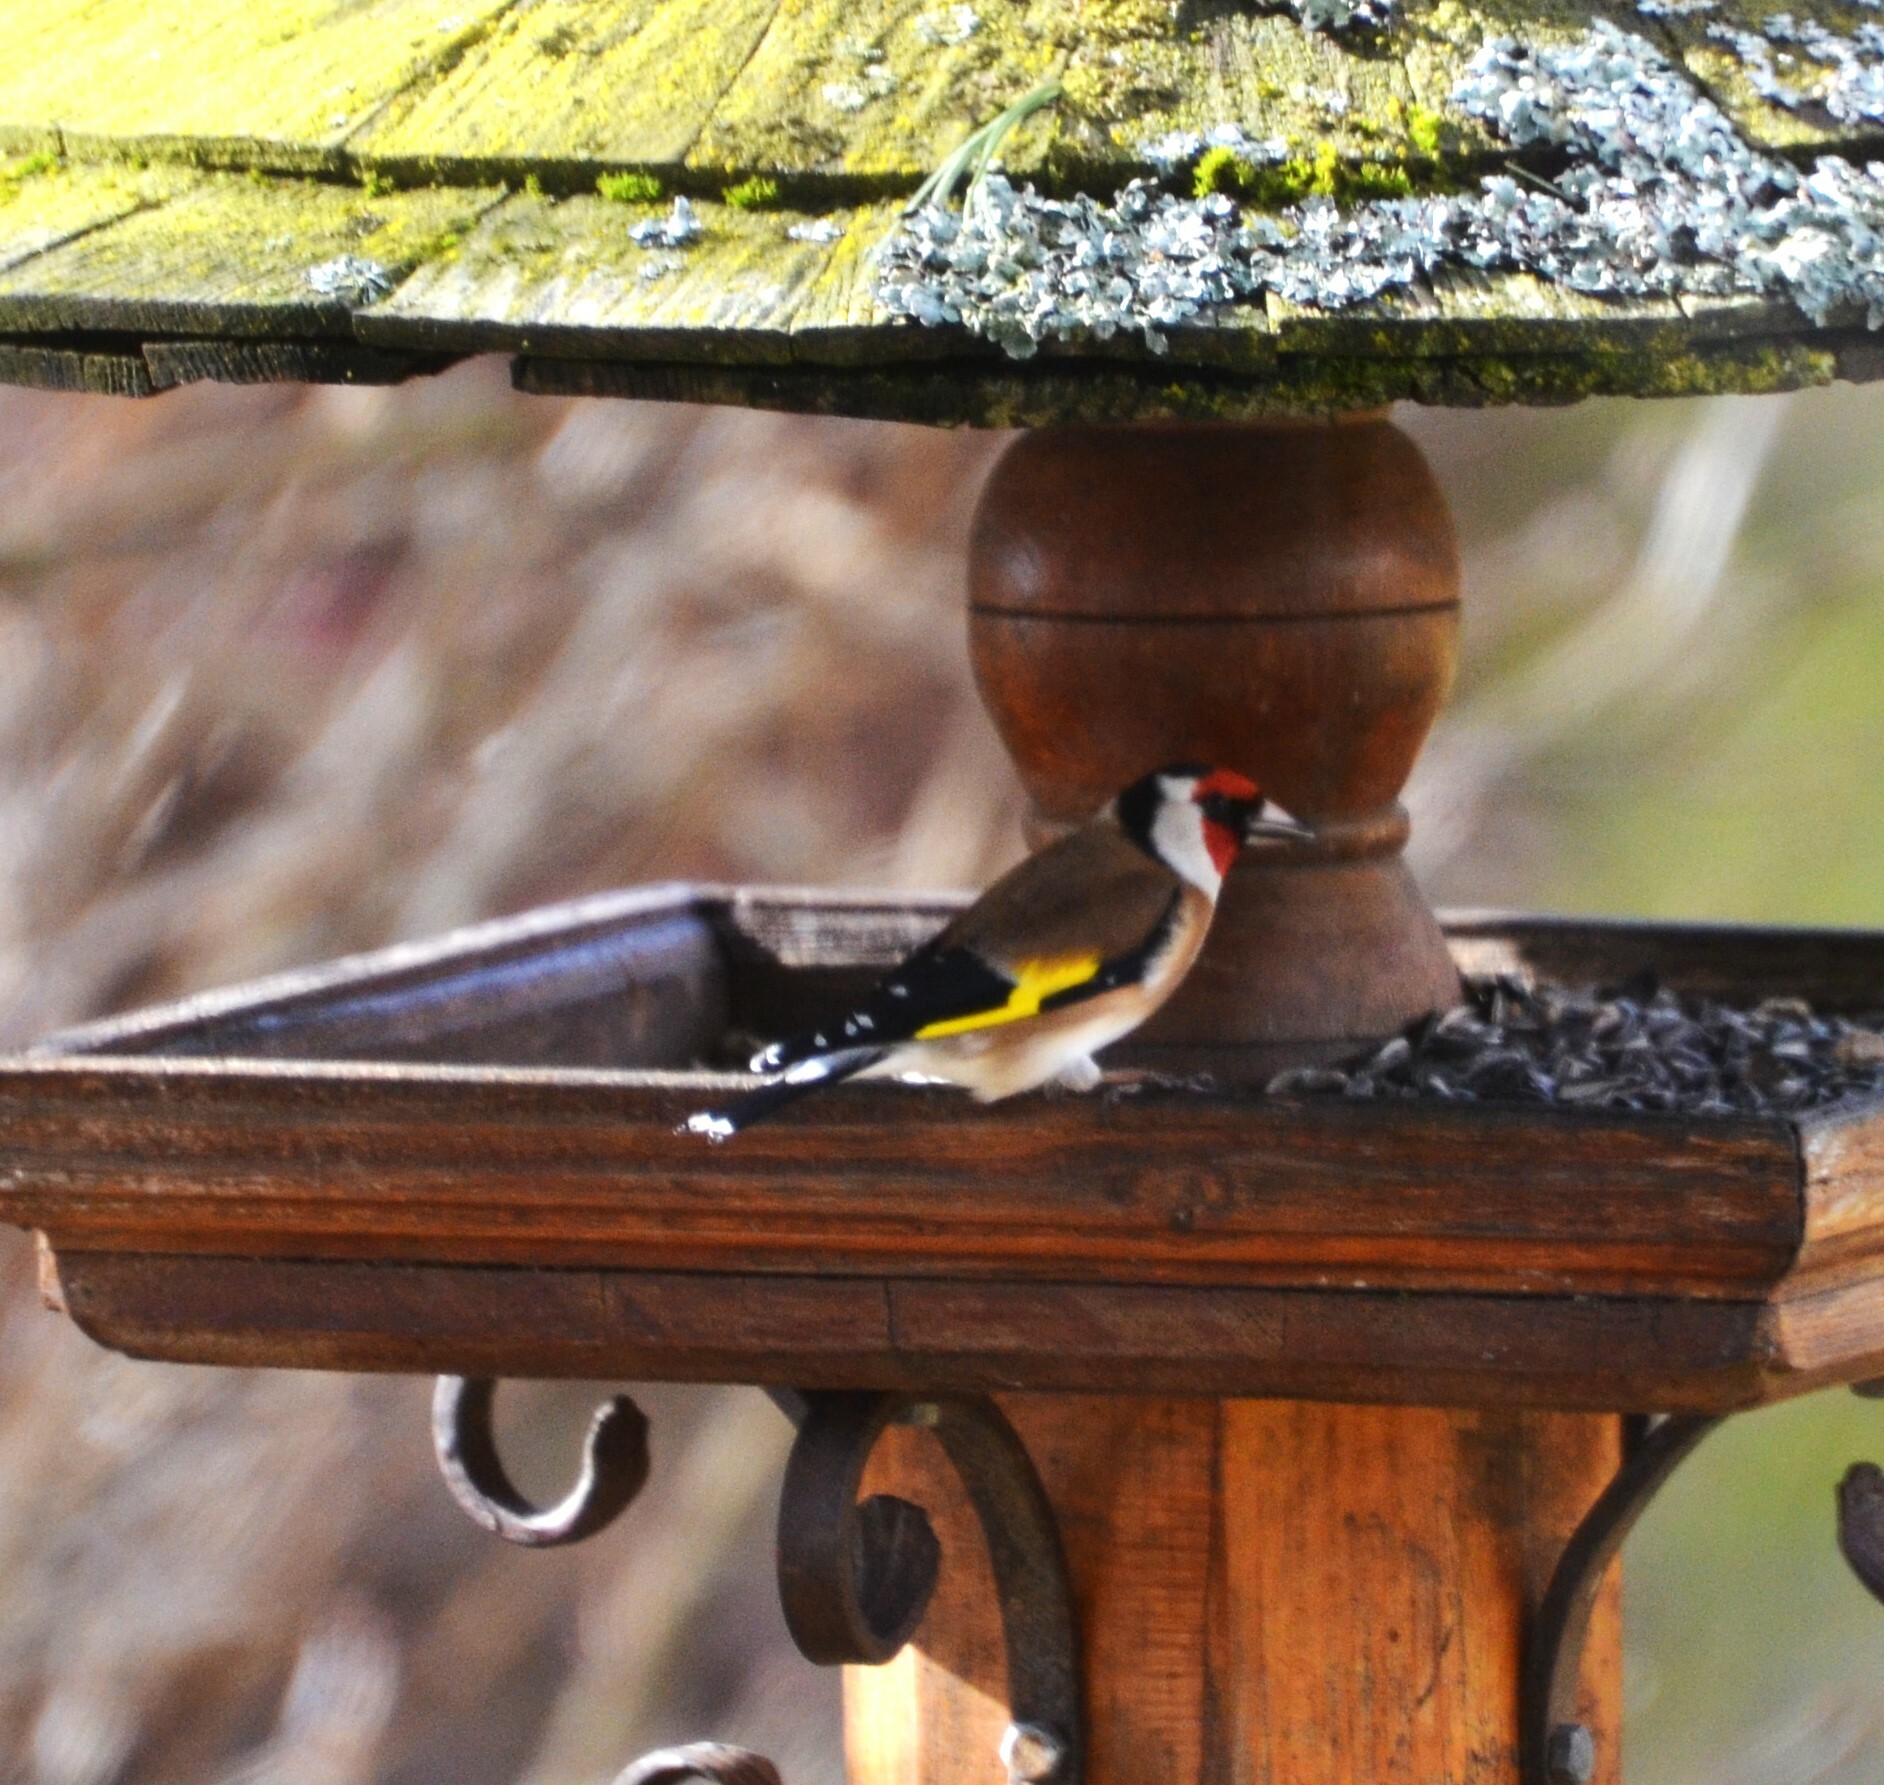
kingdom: Animalia
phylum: Chordata
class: Aves
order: Passeriformes
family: Fringillidae
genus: Carduelis
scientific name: Carduelis carduelis
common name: European goldfinch
